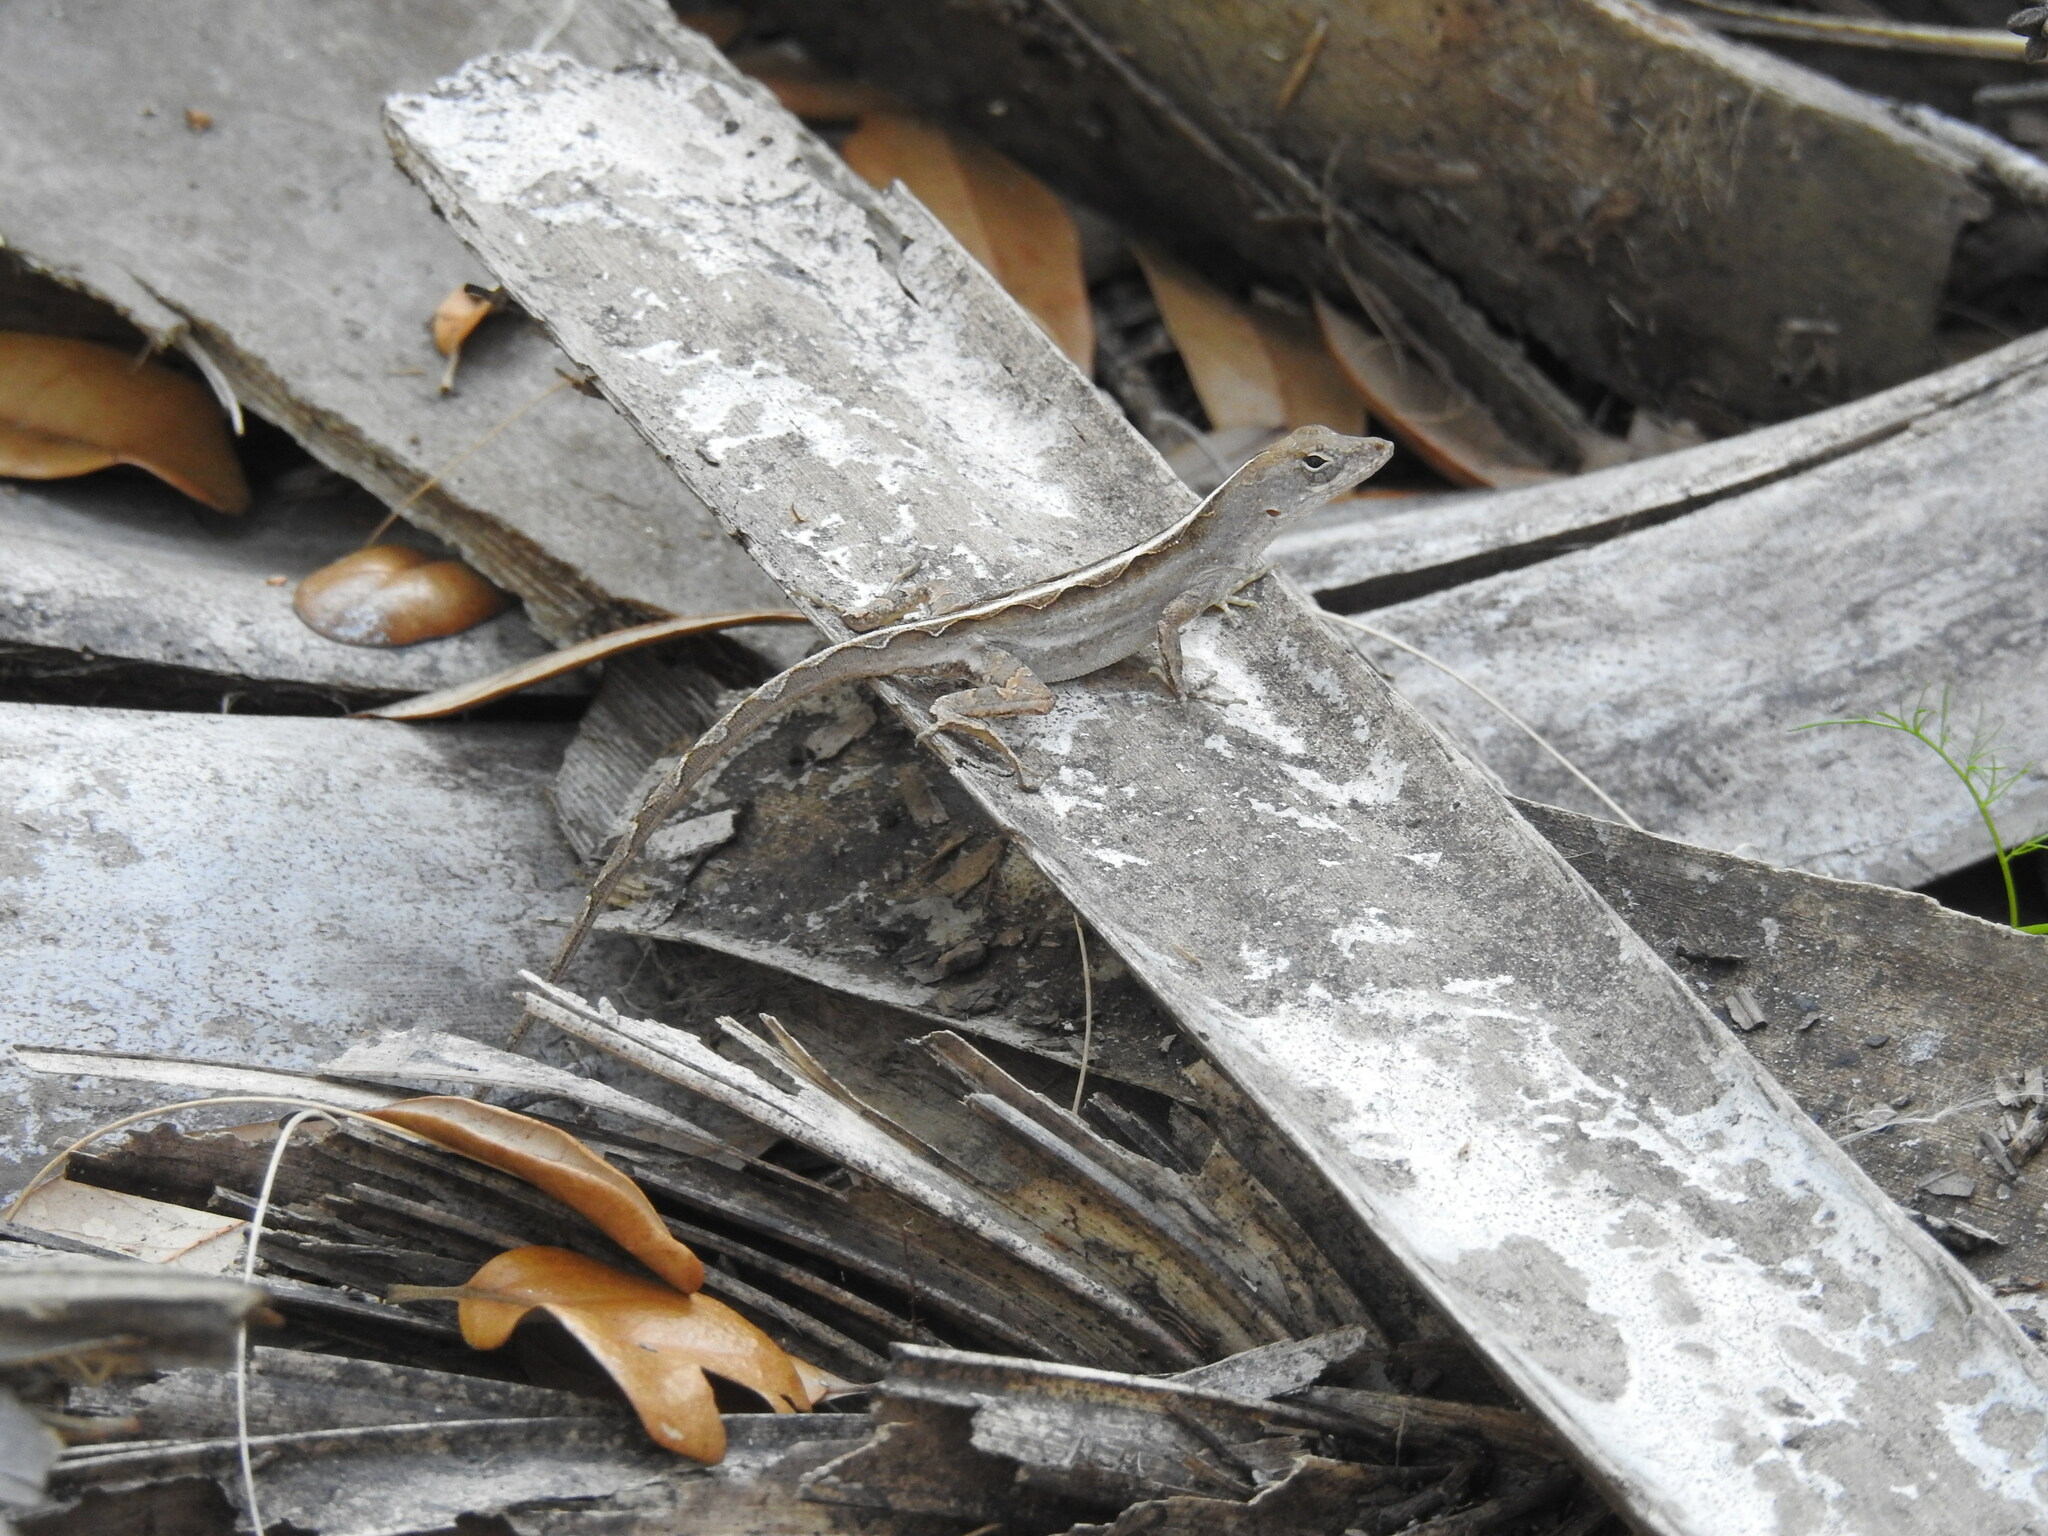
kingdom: Animalia
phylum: Chordata
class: Squamata
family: Dactyloidae
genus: Anolis
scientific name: Anolis sagrei
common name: Brown anole
